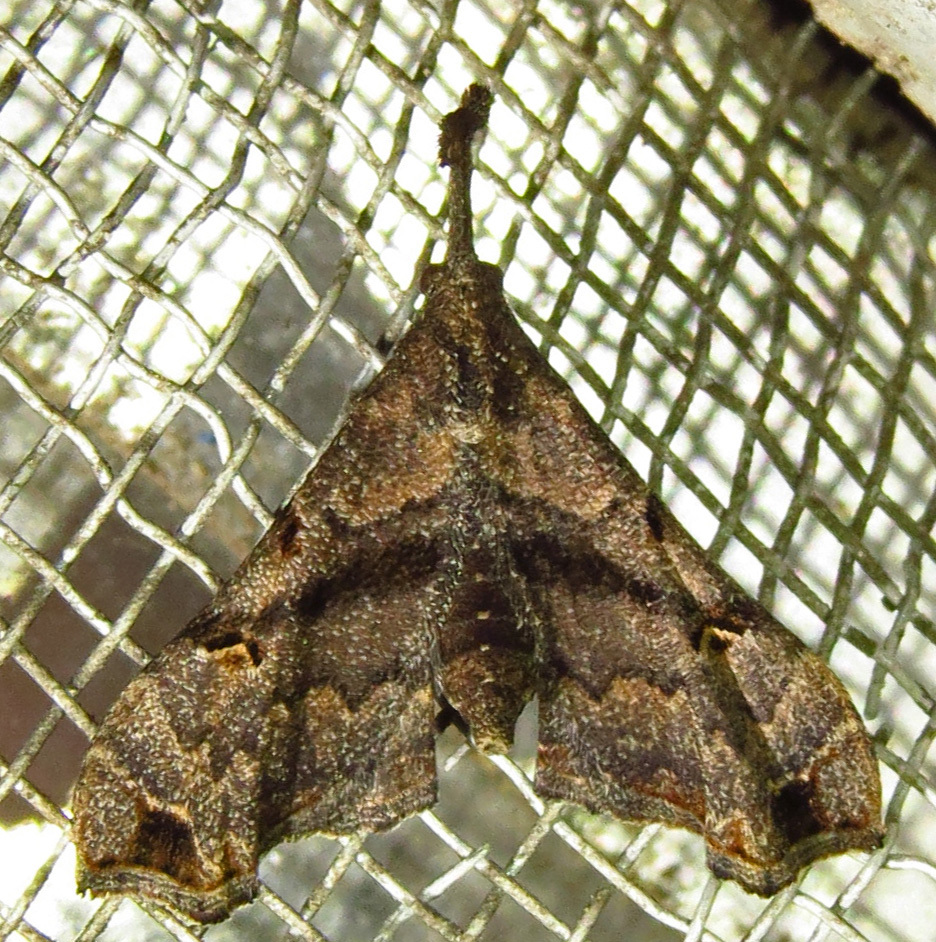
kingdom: Animalia
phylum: Arthropoda
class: Insecta
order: Lepidoptera
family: Erebidae
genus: Palthis
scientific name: Palthis asopialis
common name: Faint-spotted palthis moth
